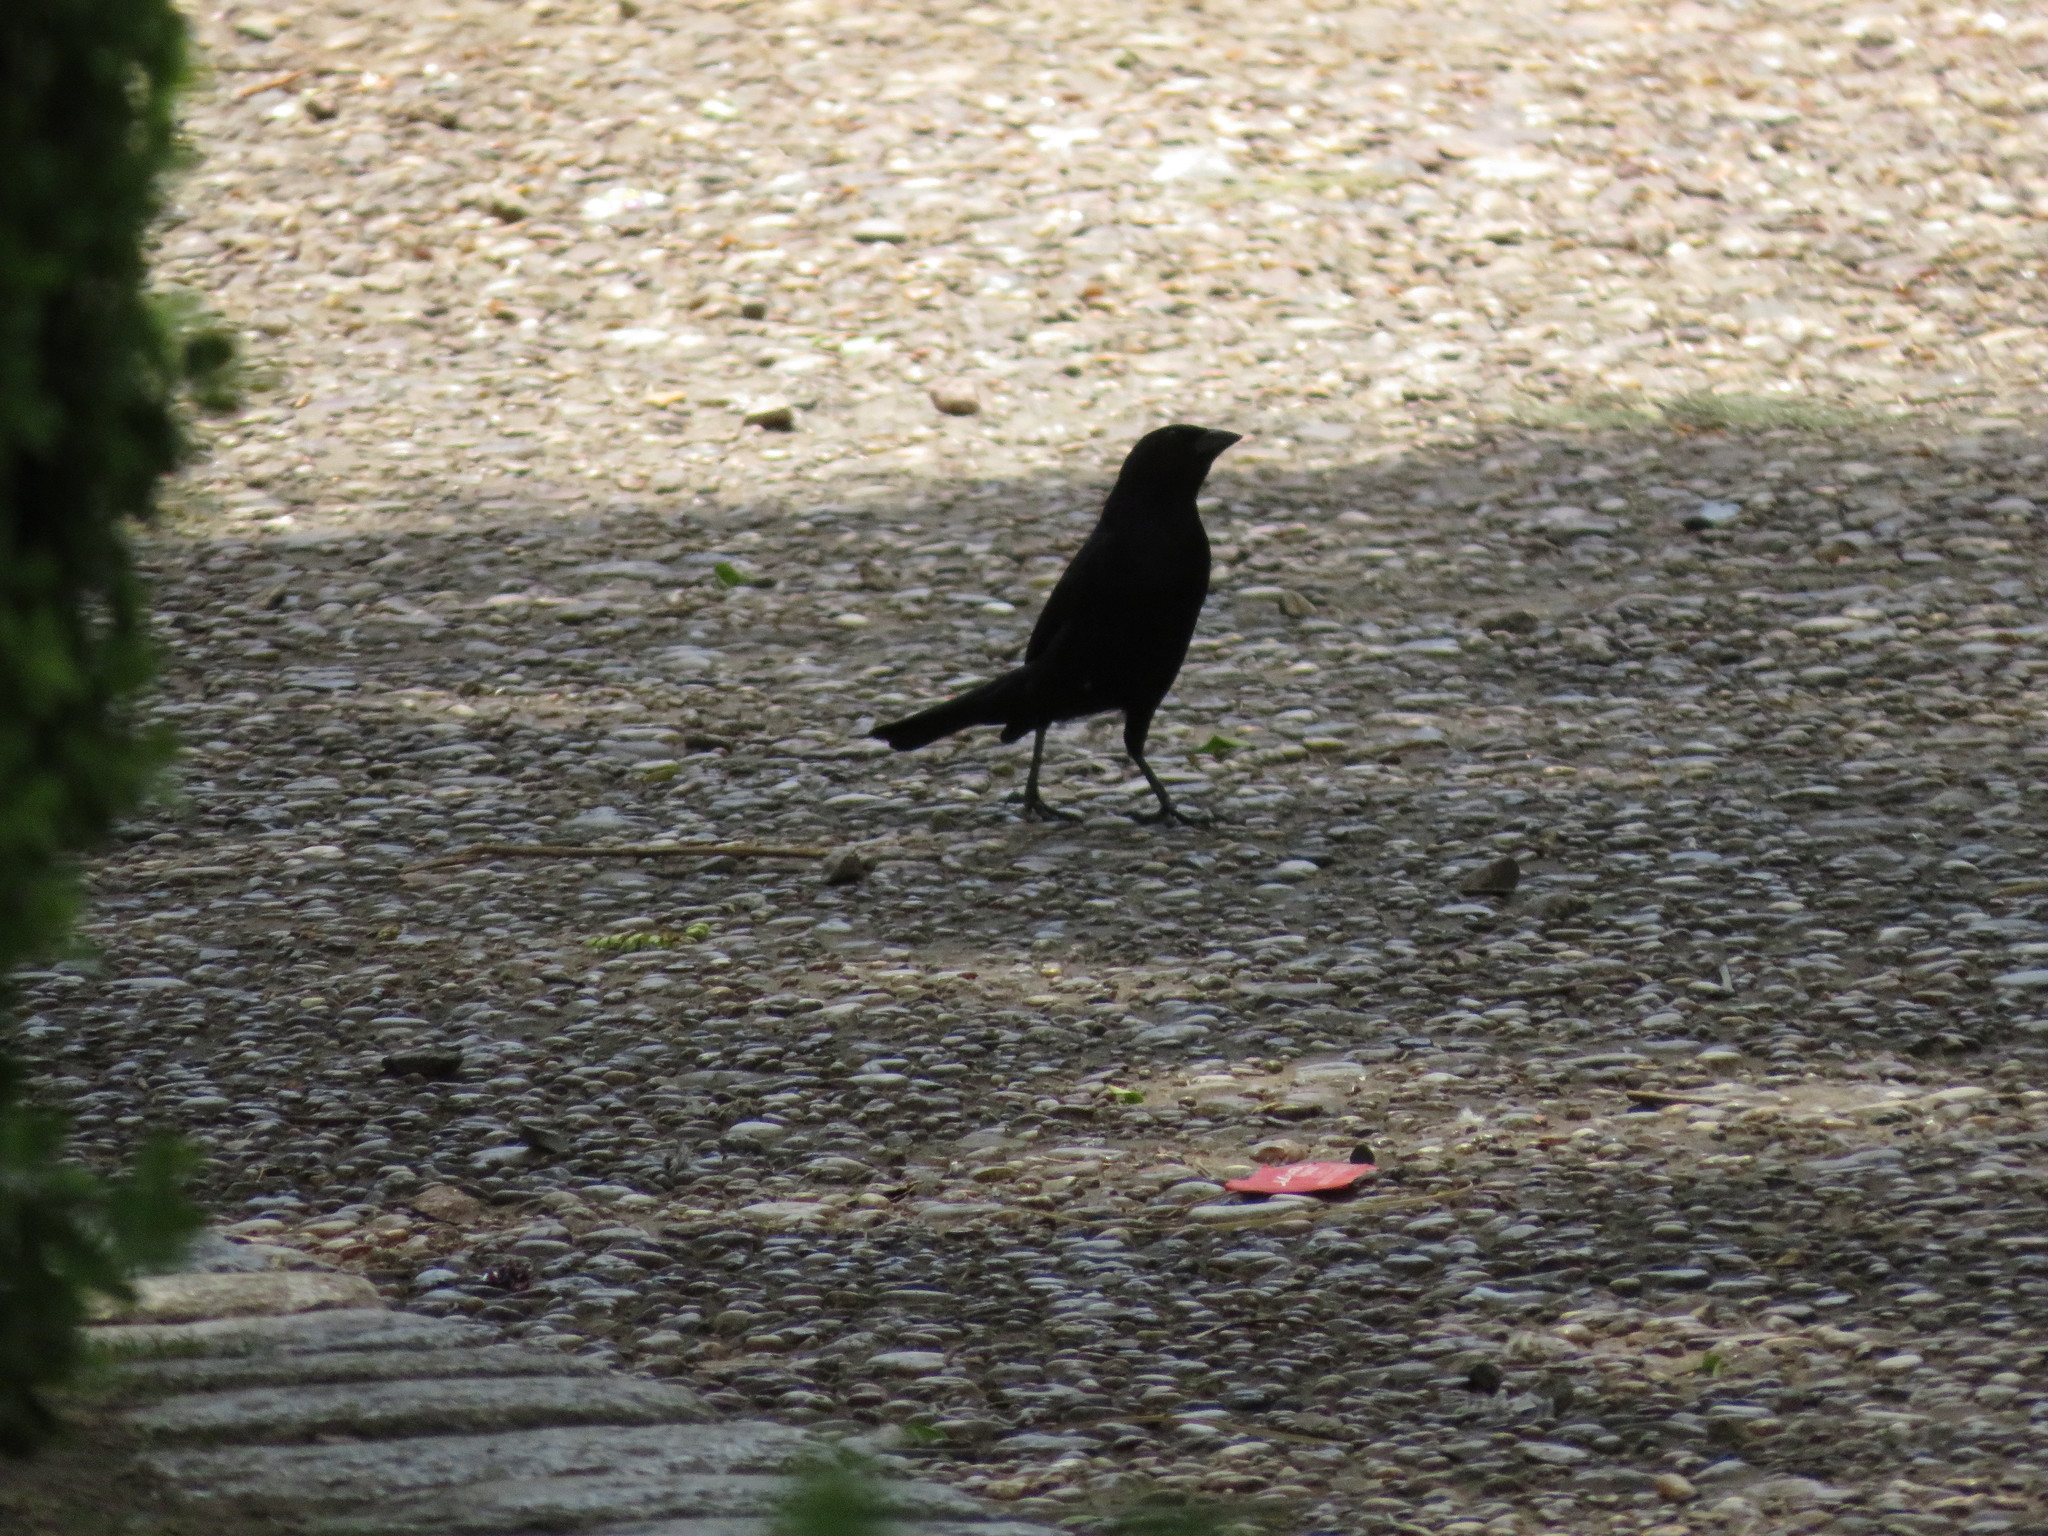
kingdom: Animalia
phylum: Chordata
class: Aves
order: Passeriformes
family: Icteridae
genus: Molothrus
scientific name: Molothrus bonariensis
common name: Shiny cowbird
